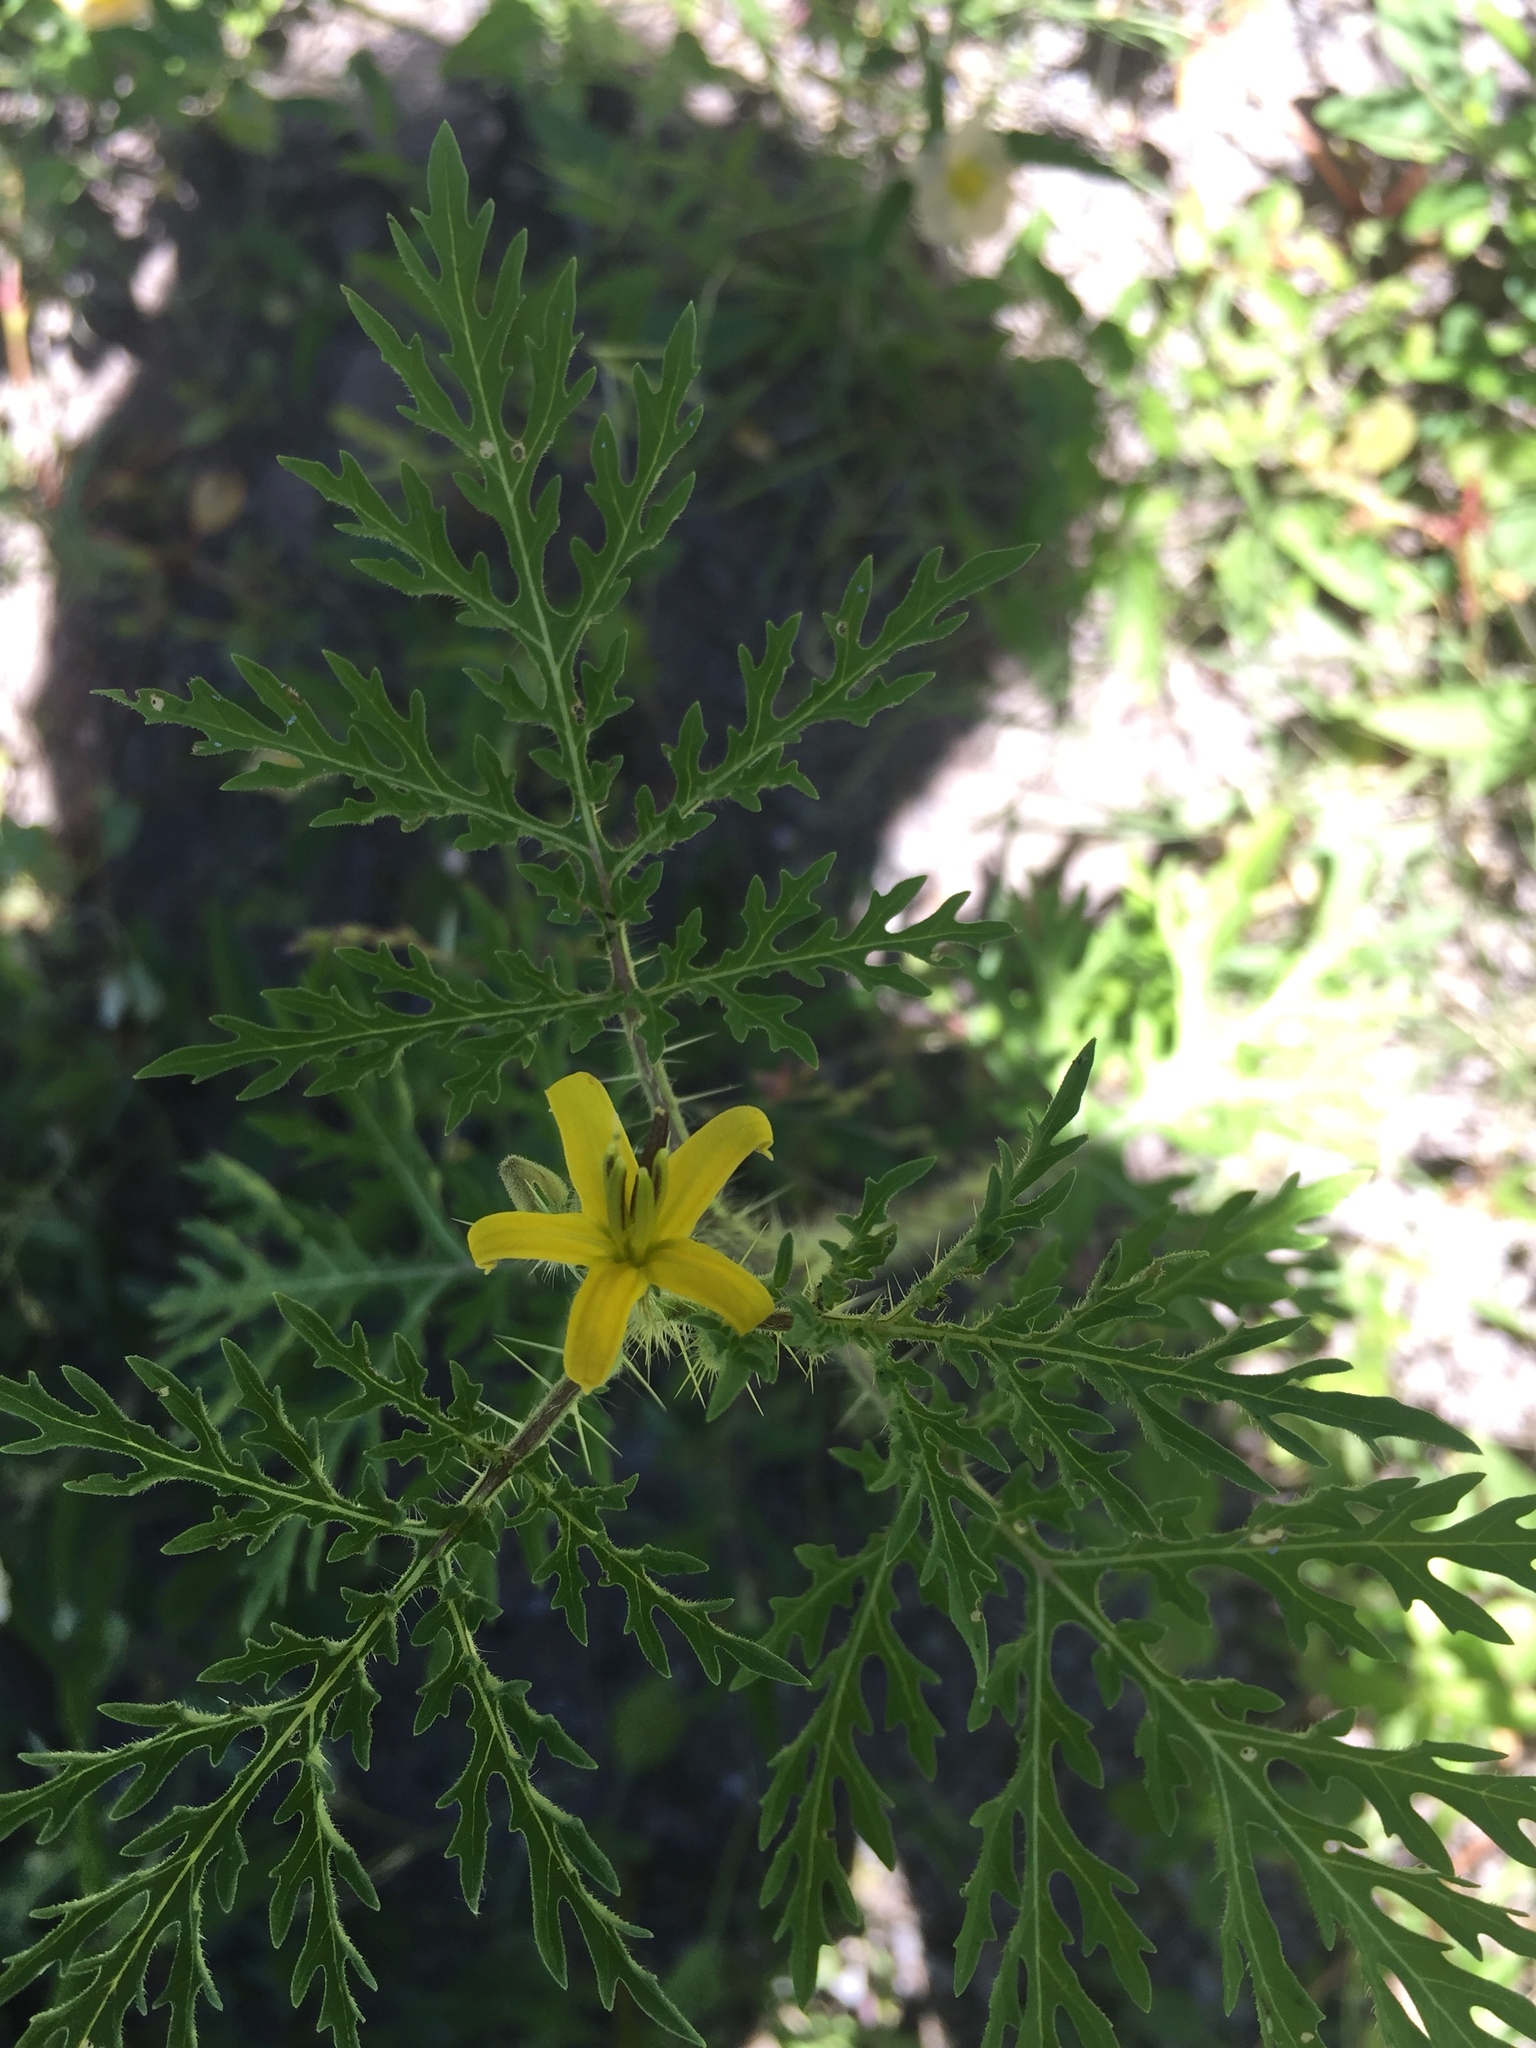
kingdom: Plantae
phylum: Tracheophyta
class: Magnoliopsida
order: Solanales
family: Solanaceae
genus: Solanum
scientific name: Solanum lumholtzianum
